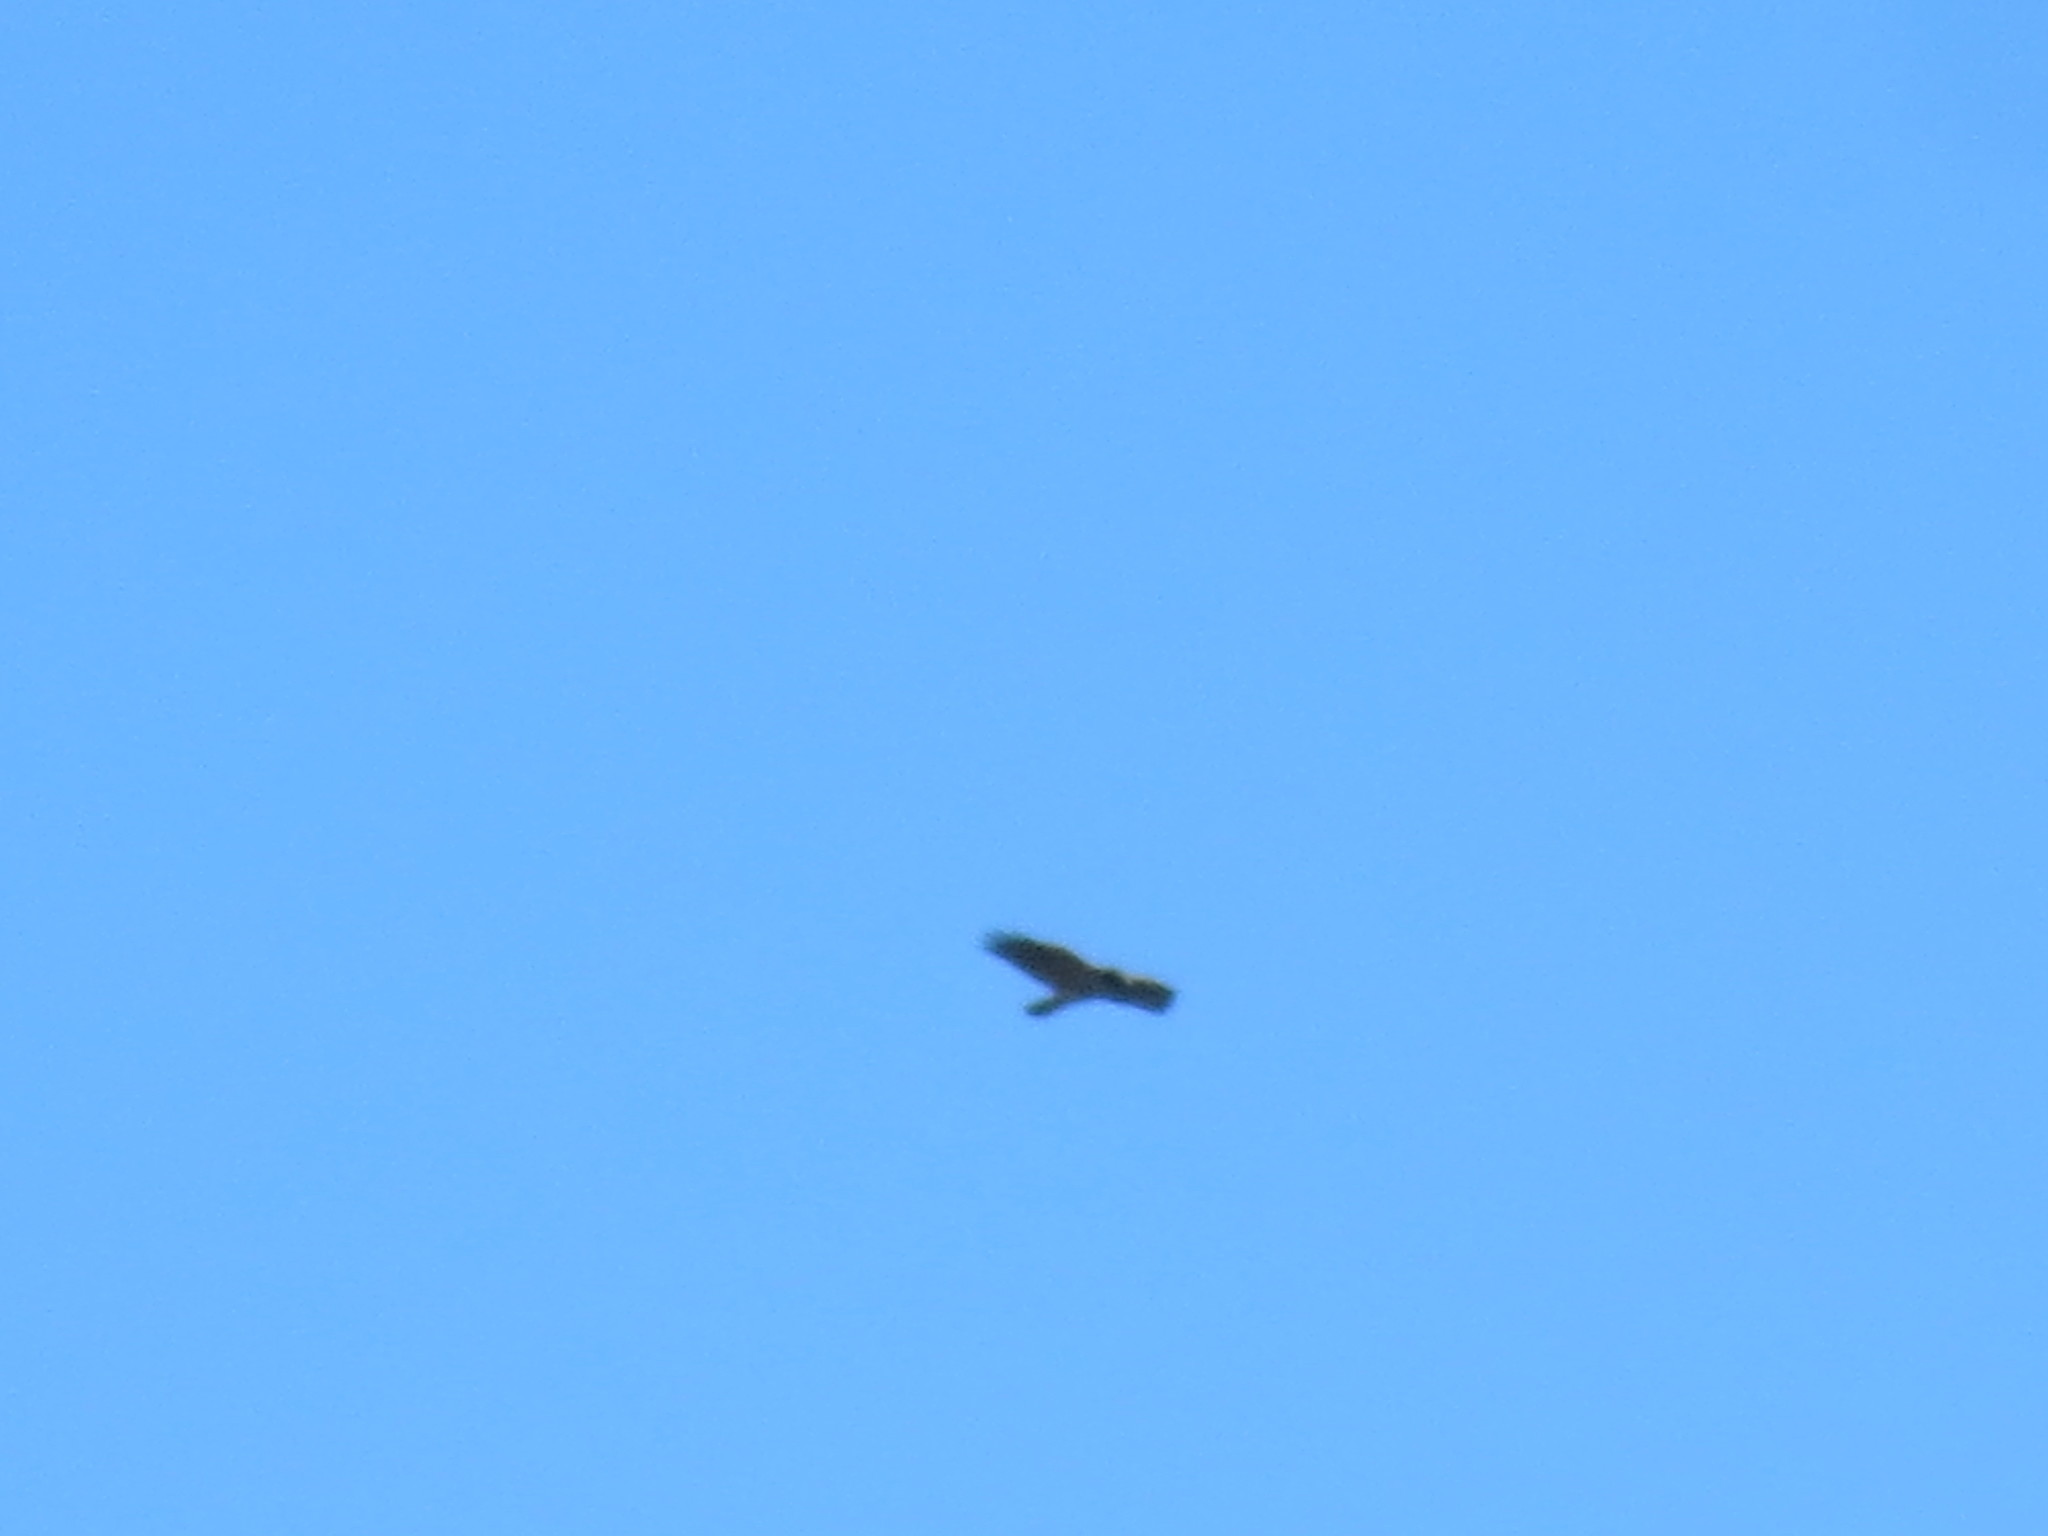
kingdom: Animalia
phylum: Chordata
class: Aves
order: Accipitriformes
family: Accipitridae
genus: Buteo
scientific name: Buteo jamaicensis
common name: Red-tailed hawk
